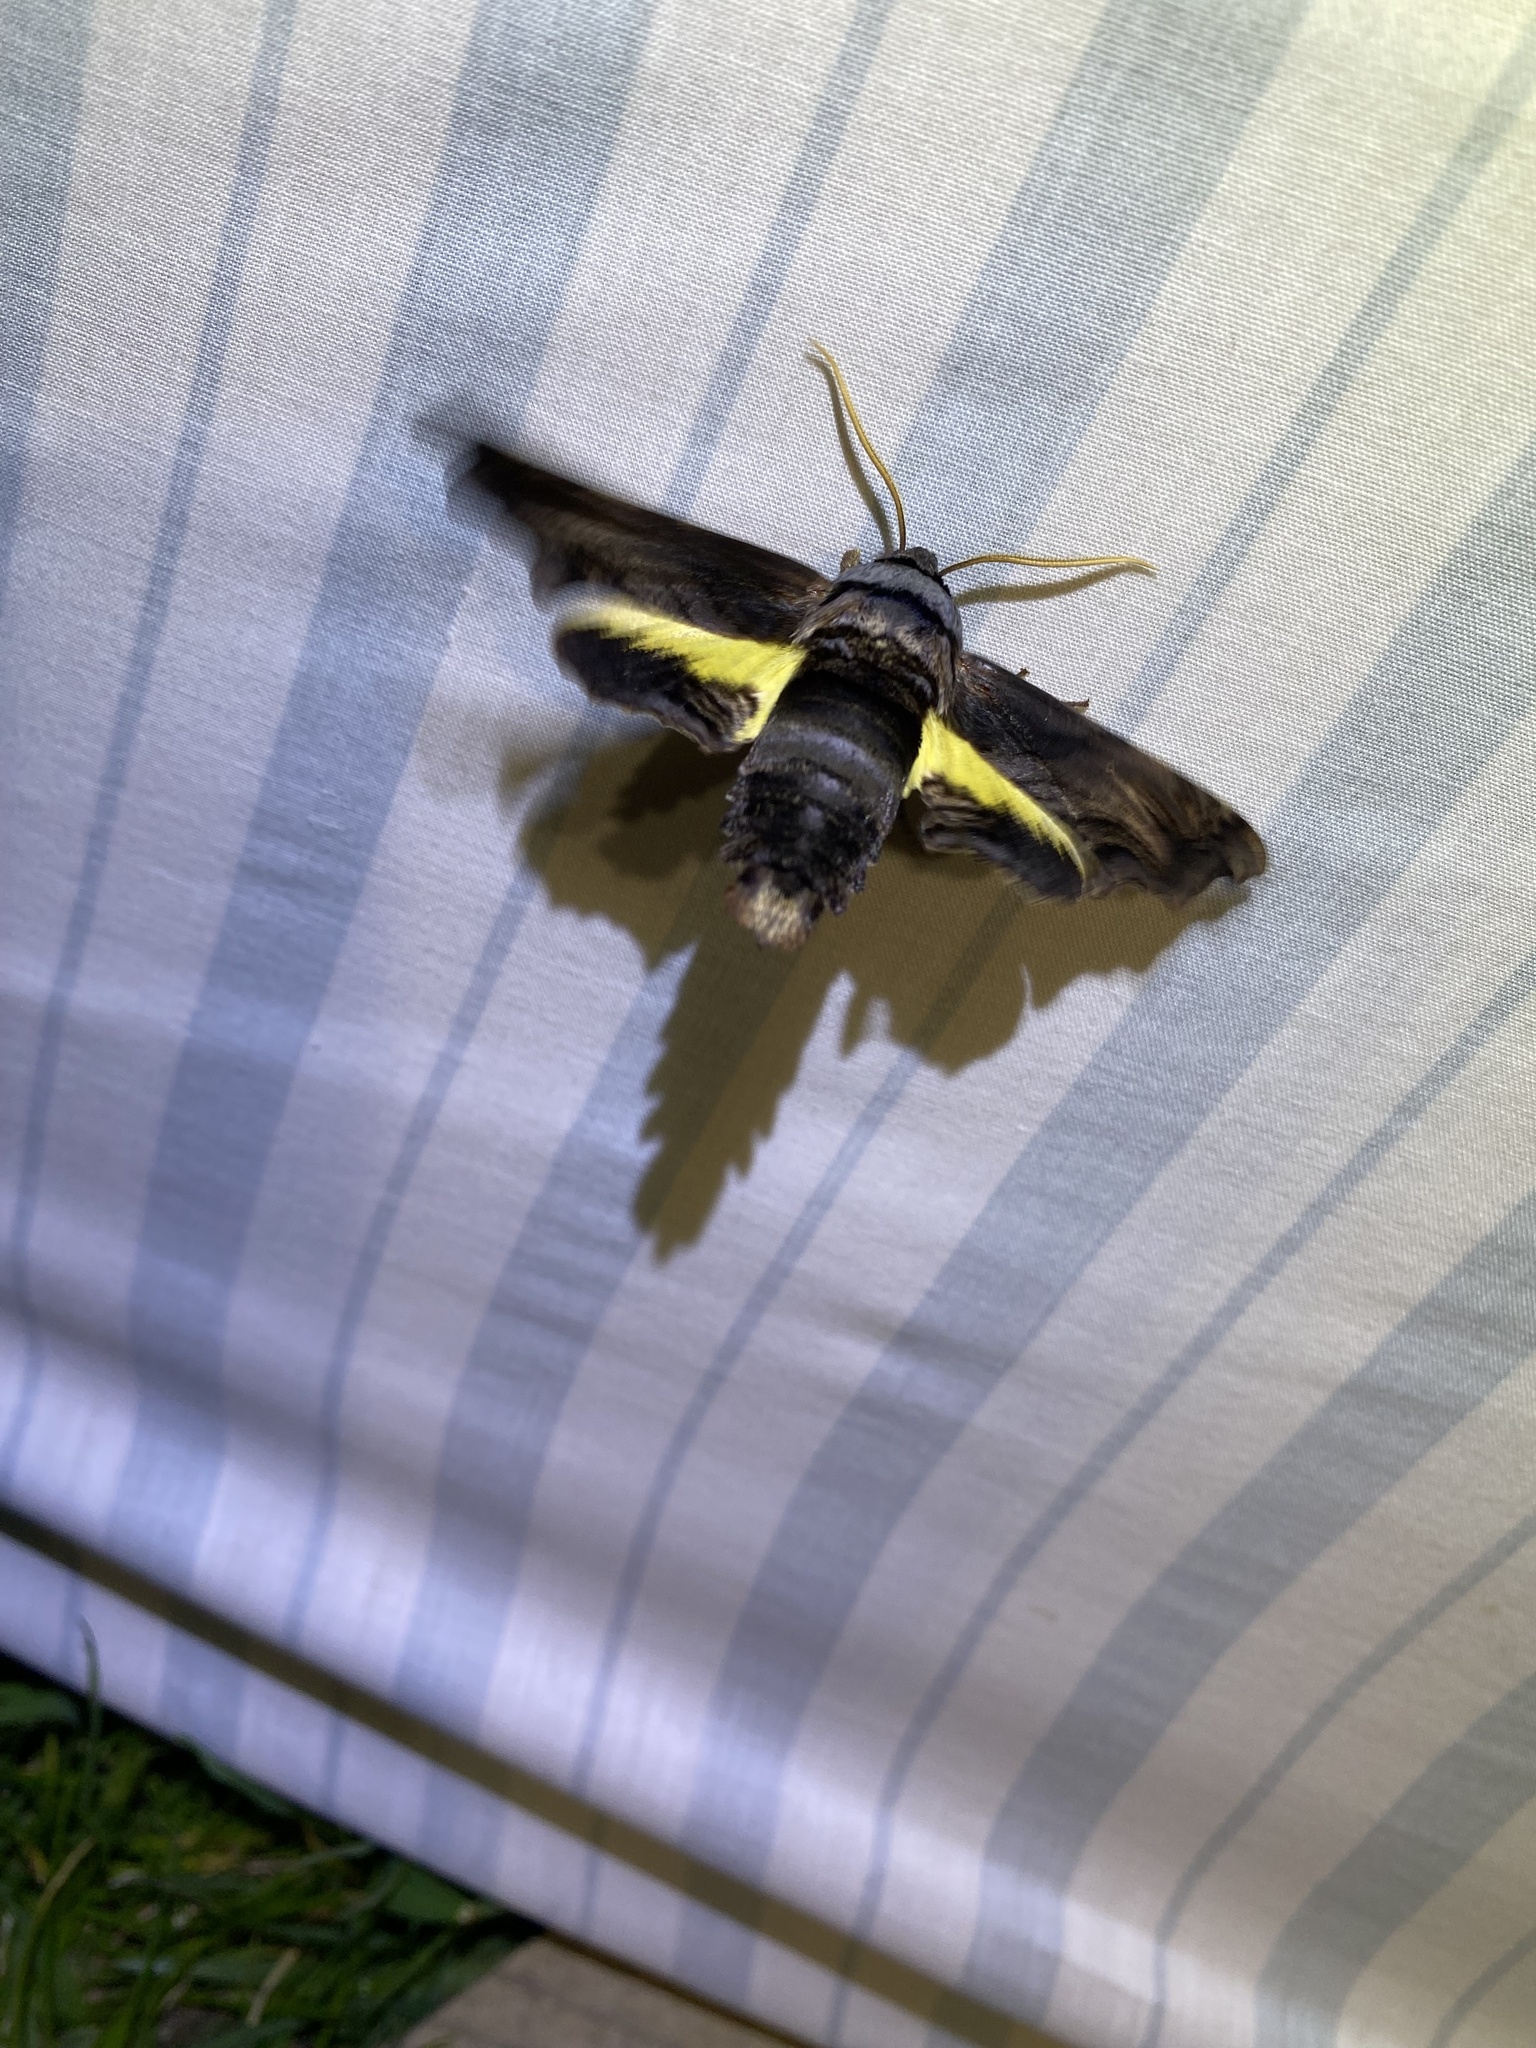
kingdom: Animalia
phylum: Arthropoda
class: Insecta
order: Lepidoptera
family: Sphingidae
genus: Sphecodina
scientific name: Sphecodina abbottii
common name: Abbott's sphinx
